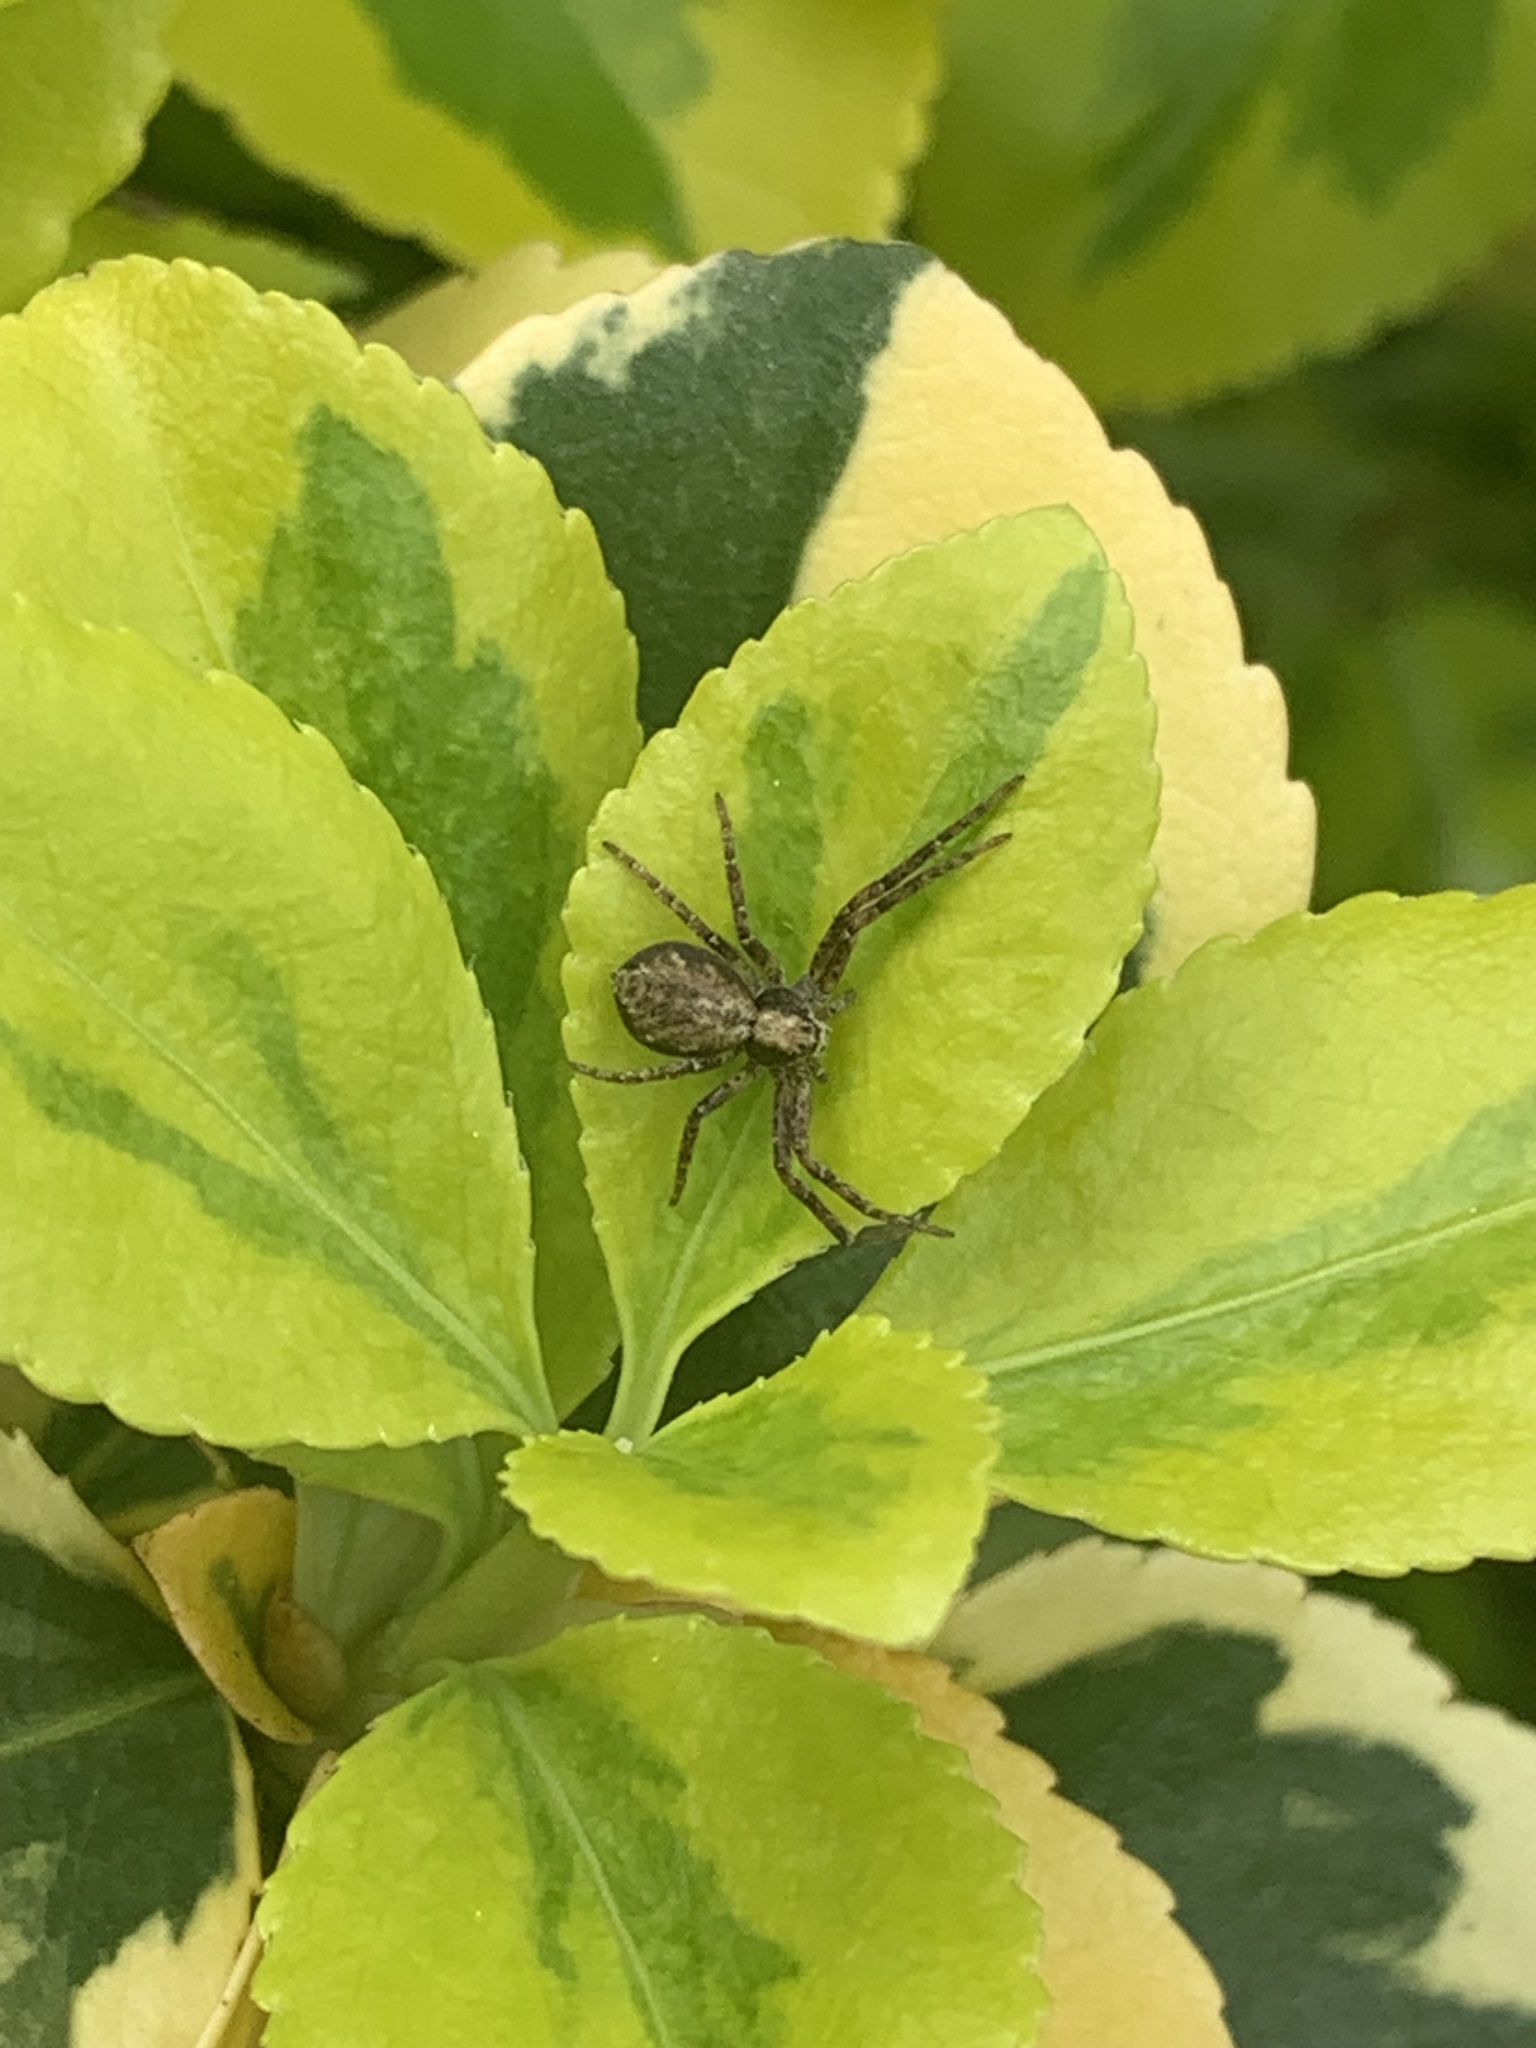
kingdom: Animalia
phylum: Arthropoda
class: Arachnida
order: Araneae
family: Philodromidae
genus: Philodromus
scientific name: Philodromus dispar
